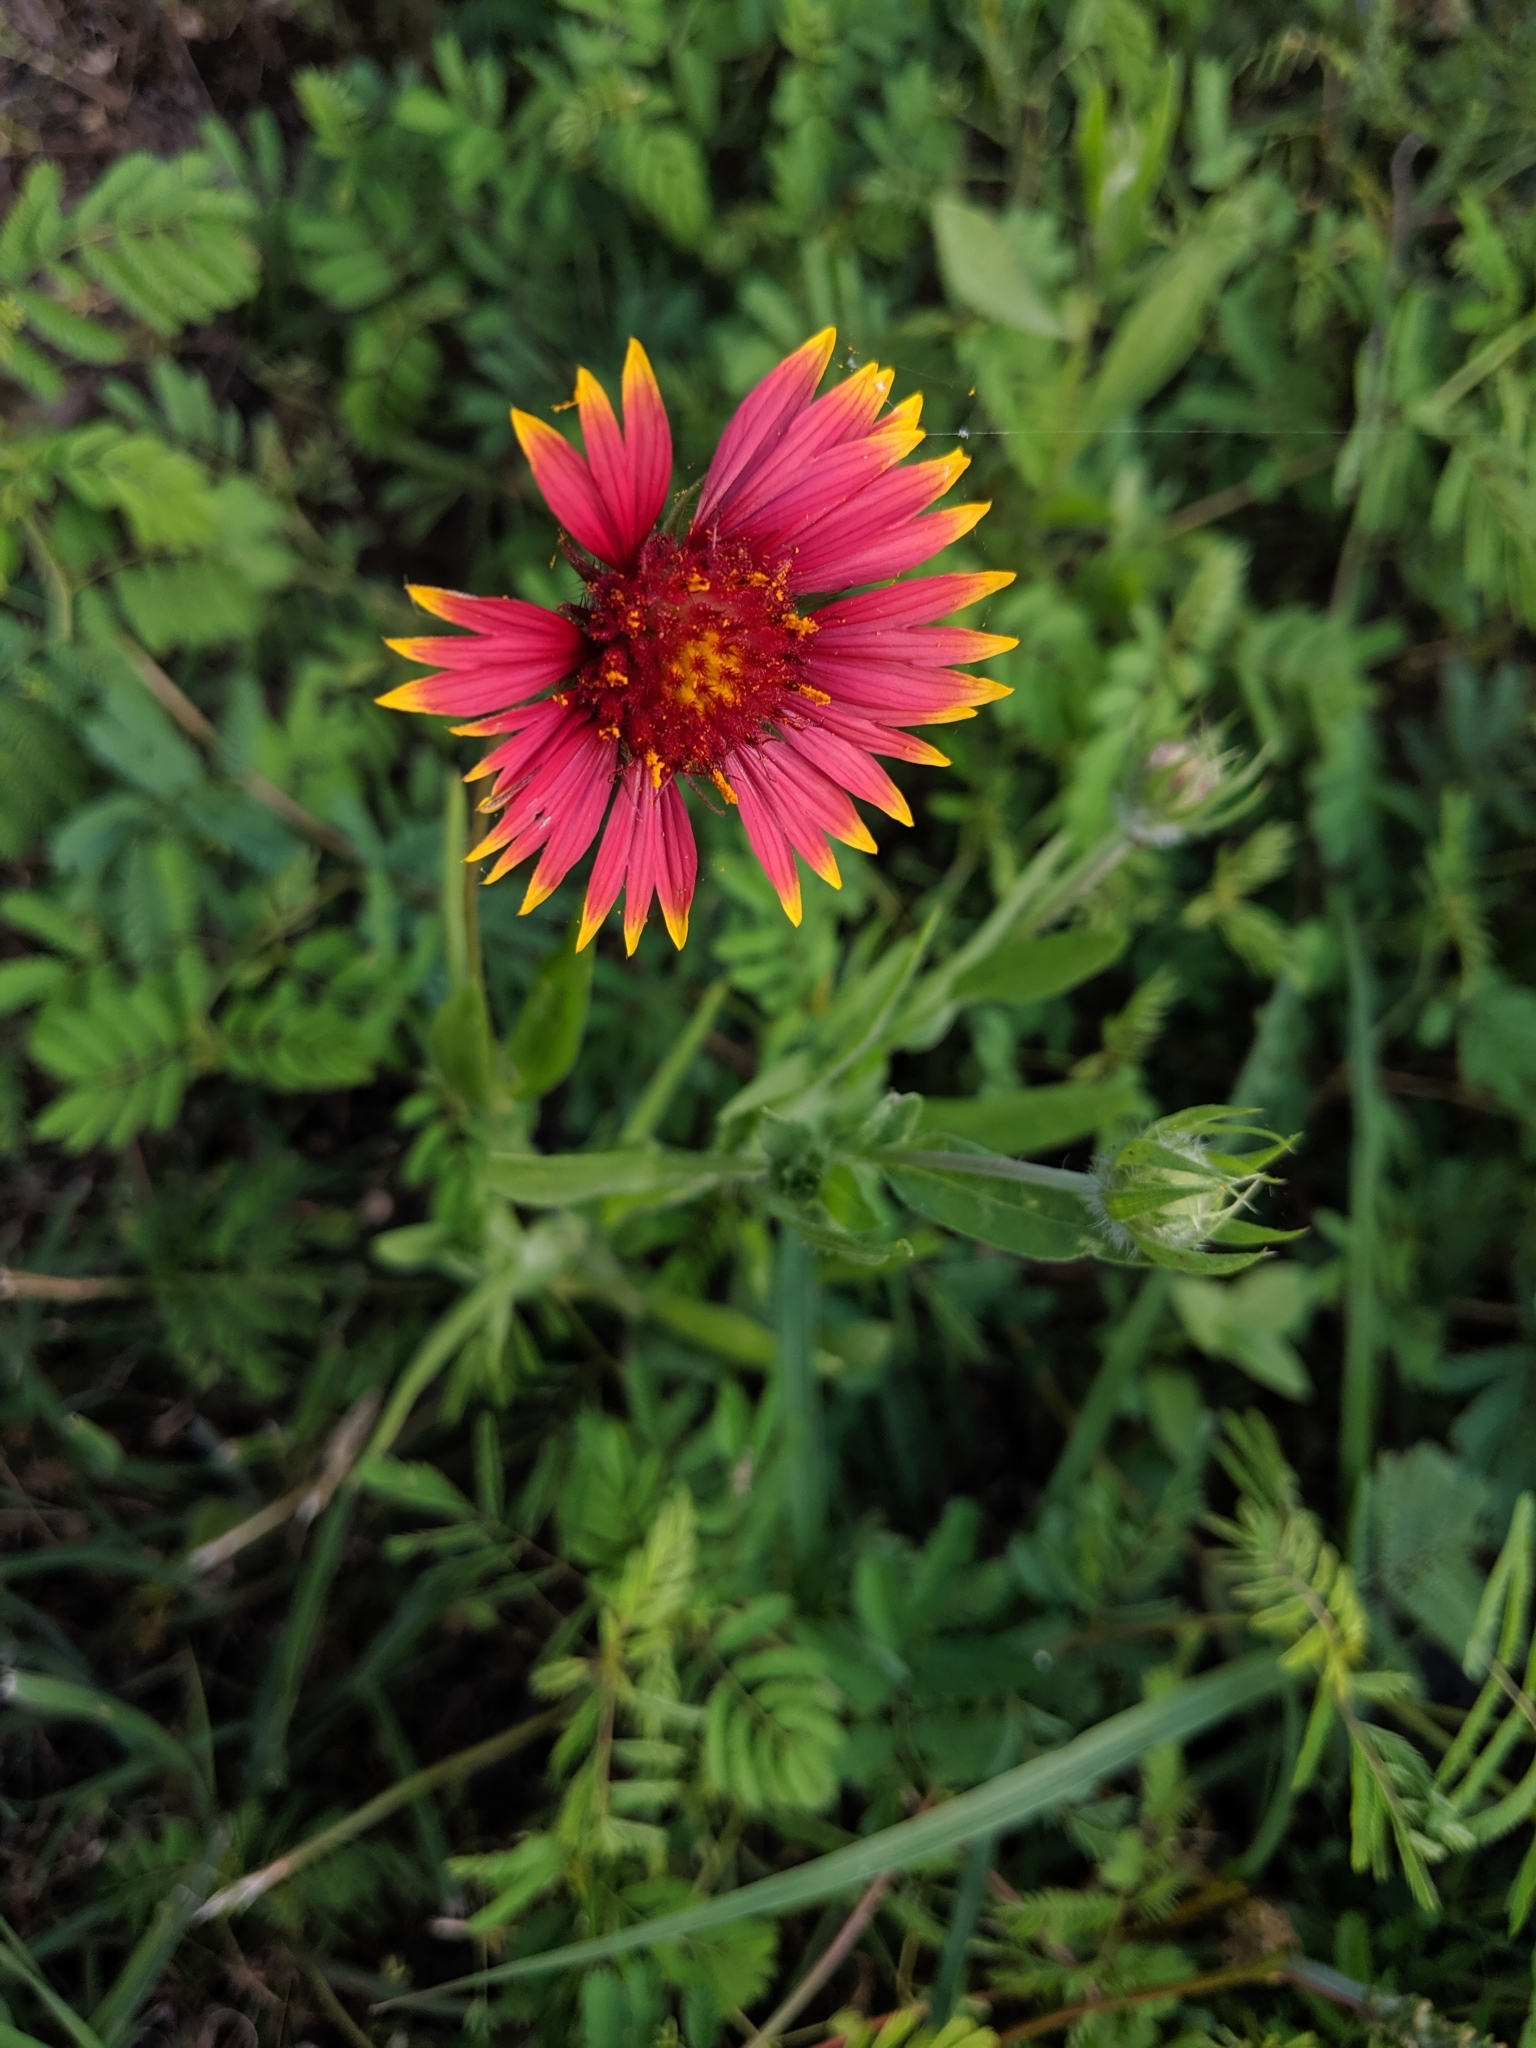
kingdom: Plantae
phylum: Tracheophyta
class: Magnoliopsida
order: Asterales
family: Asteraceae
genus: Gaillardia
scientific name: Gaillardia pulchella
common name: Firewheel
